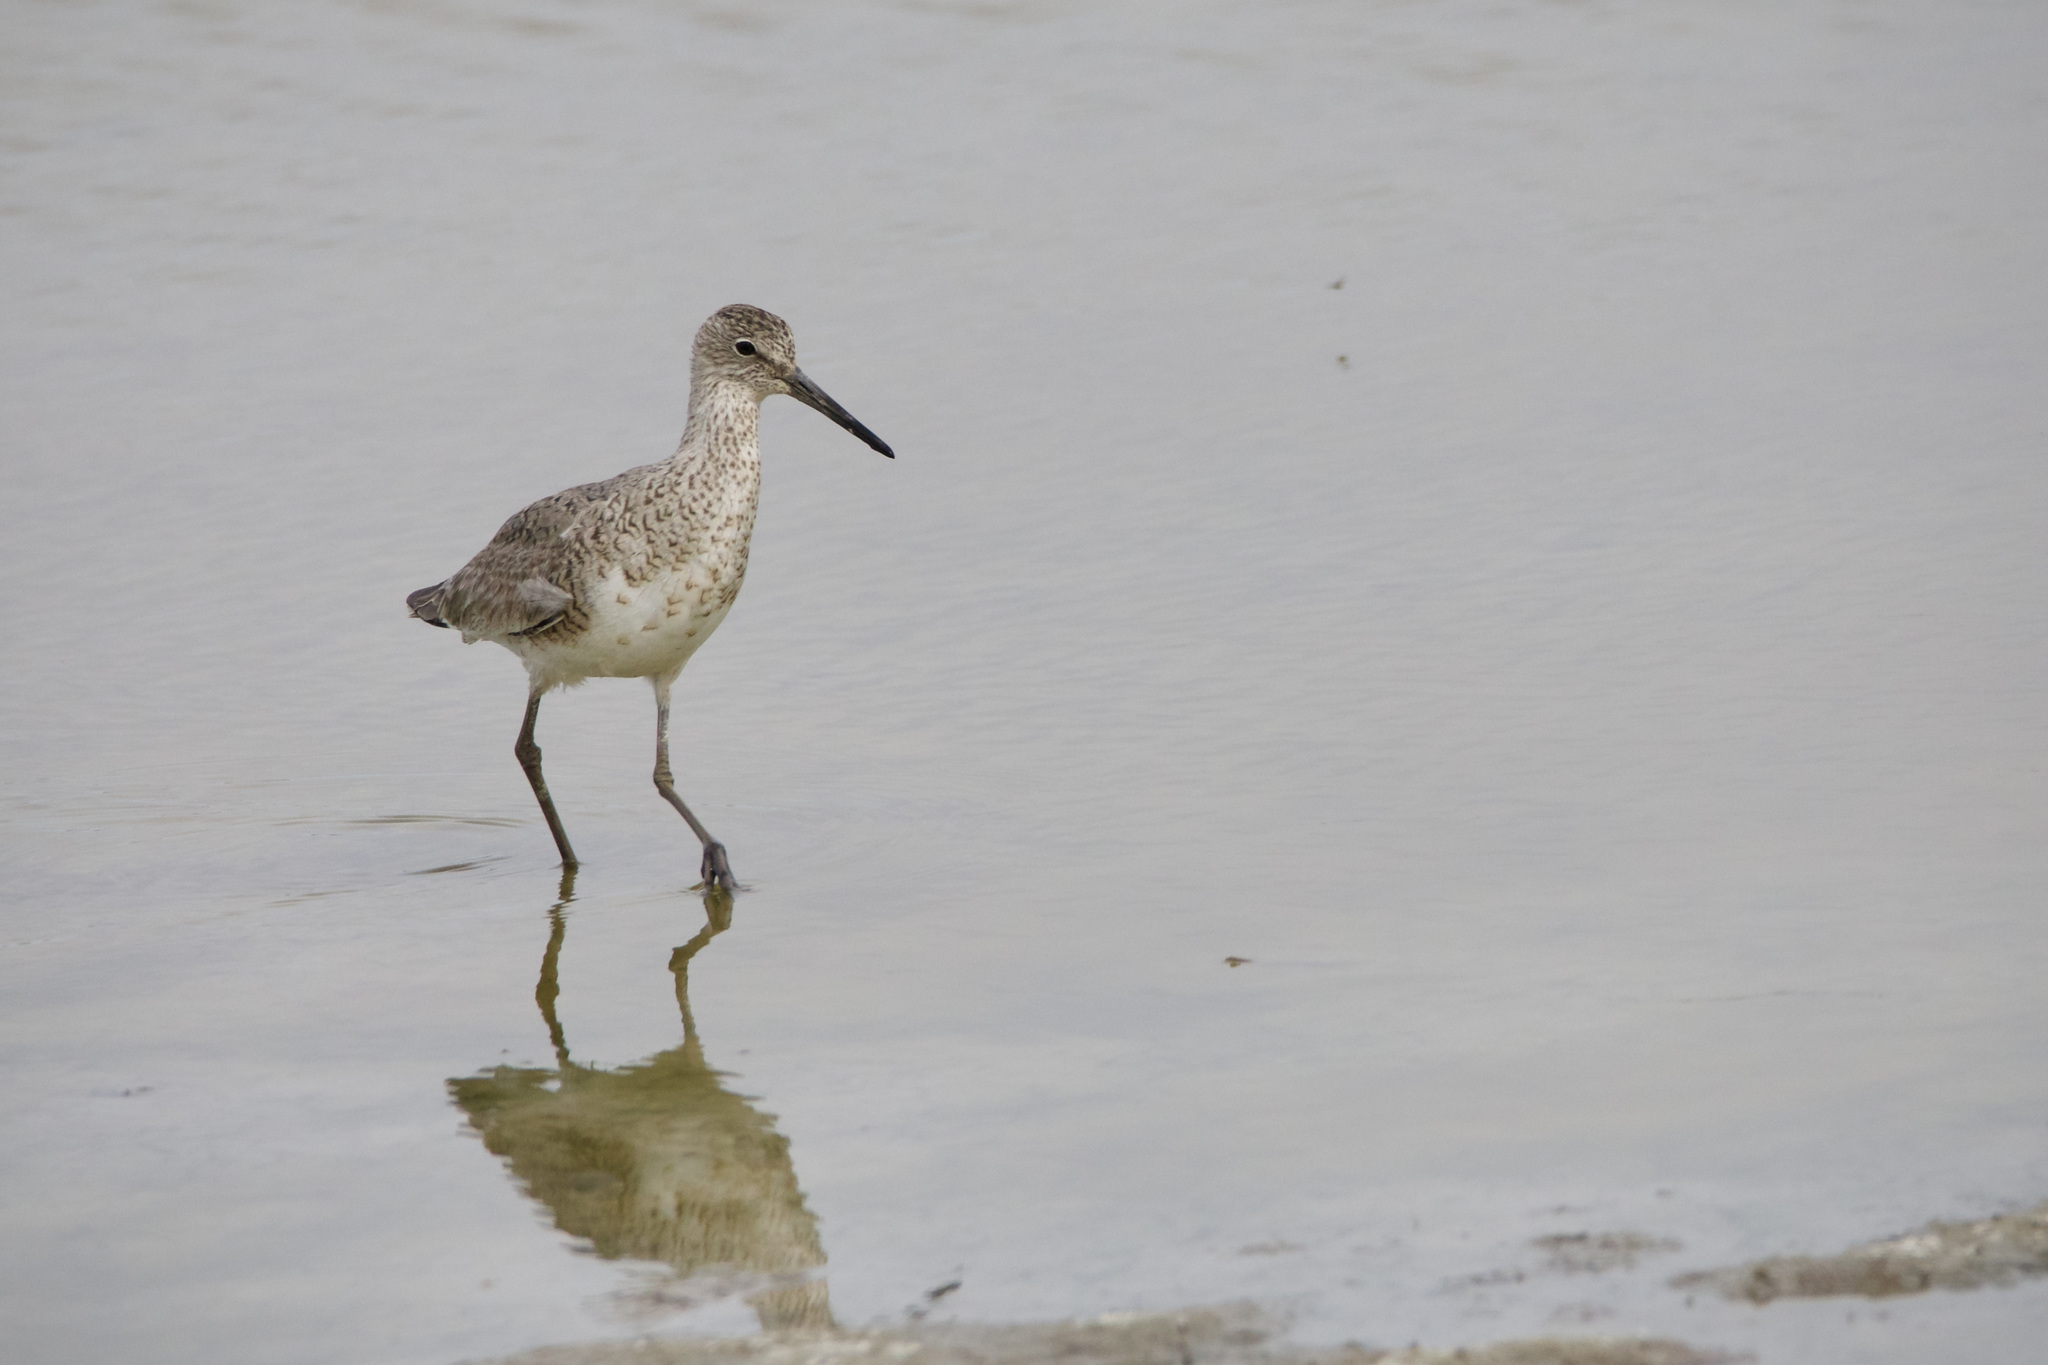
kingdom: Animalia
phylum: Chordata
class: Aves
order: Charadriiformes
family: Scolopacidae
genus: Tringa
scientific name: Tringa semipalmata
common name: Willet
